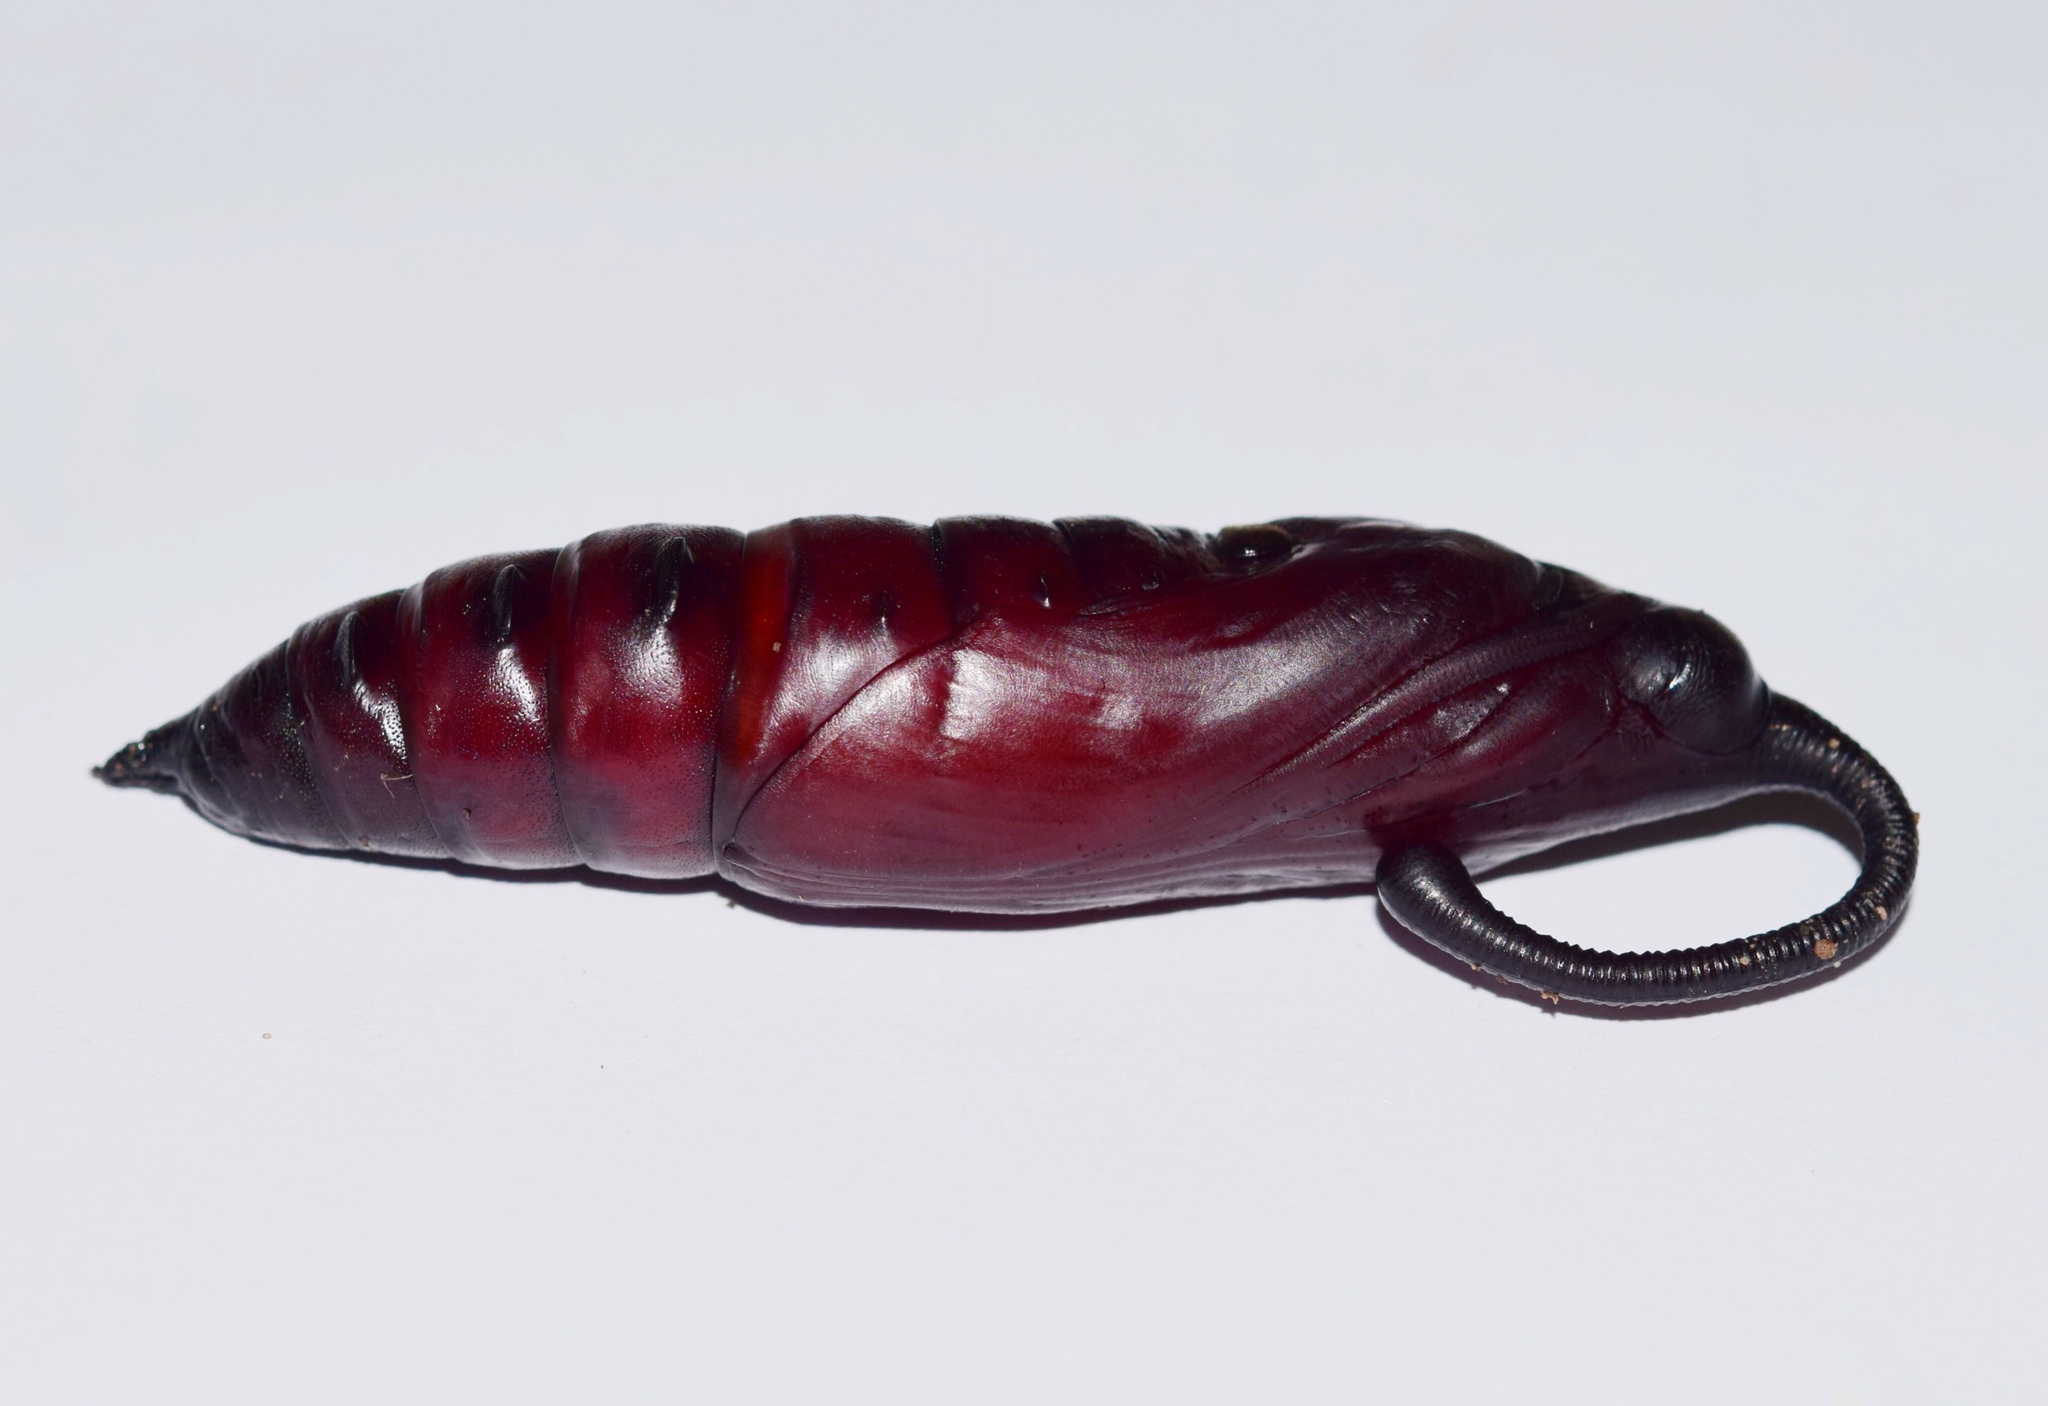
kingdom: Animalia
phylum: Arthropoda
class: Insecta
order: Lepidoptera
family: Sphingidae
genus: Coelonia
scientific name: Coelonia fulvinotata
